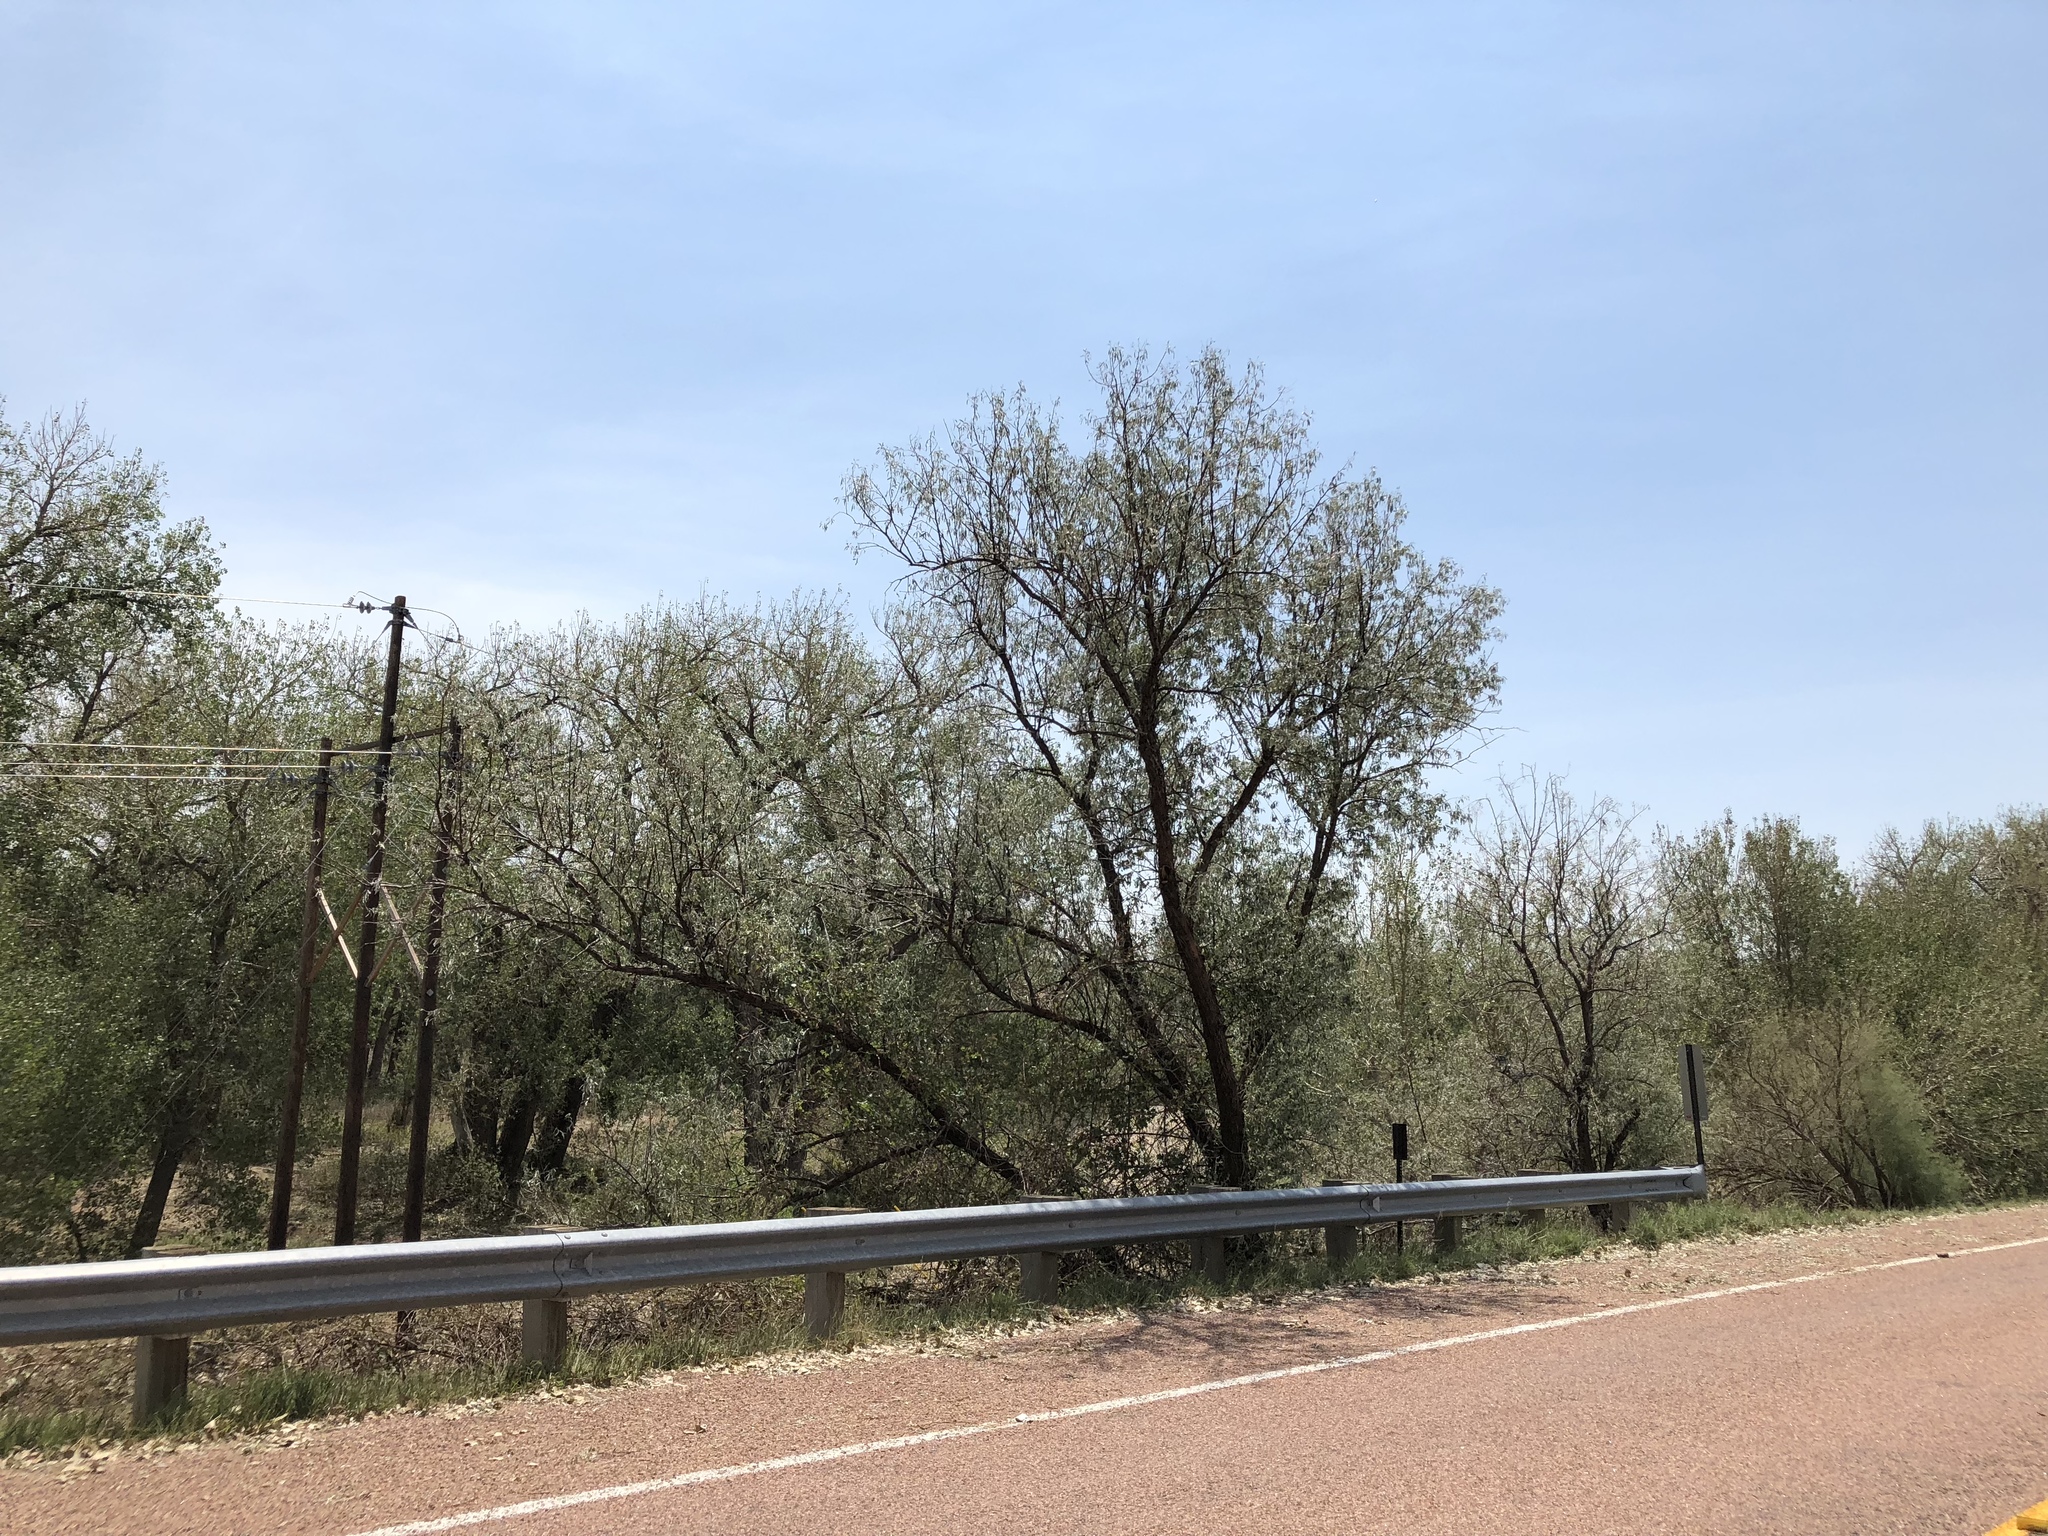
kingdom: Plantae
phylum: Tracheophyta
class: Magnoliopsida
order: Rosales
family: Elaeagnaceae
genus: Elaeagnus
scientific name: Elaeagnus angustifolia
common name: Russian olive
